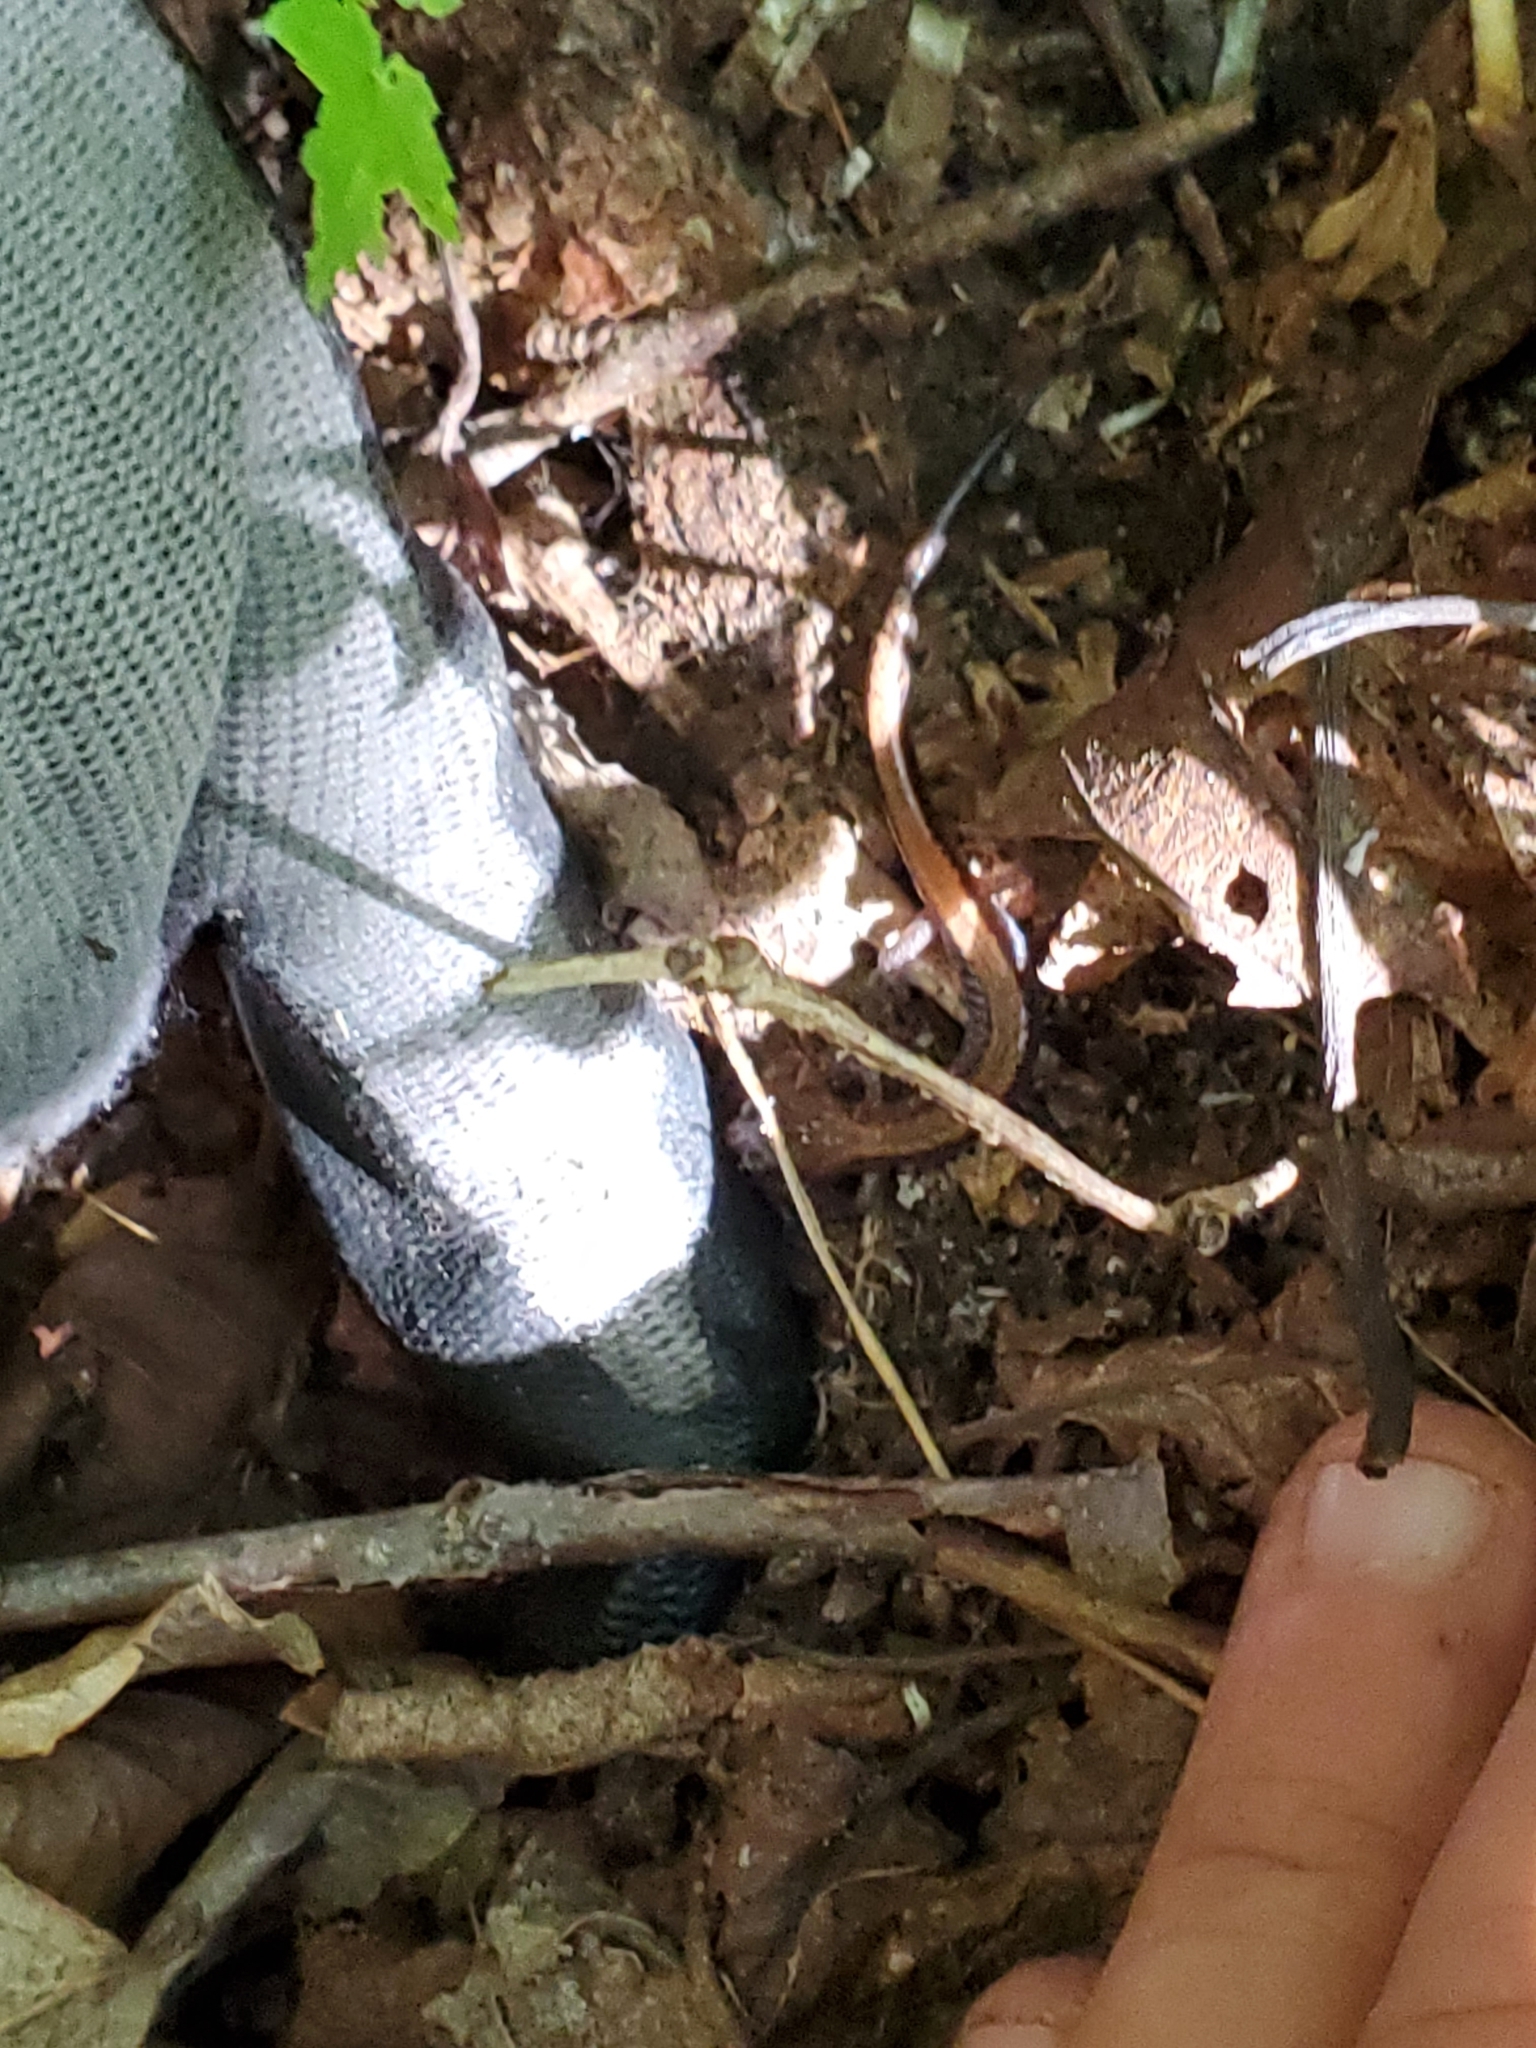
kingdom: Animalia
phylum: Chordata
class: Amphibia
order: Caudata
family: Plethodontidae
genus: Plethodon
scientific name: Plethodon cinereus
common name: Redback salamander
